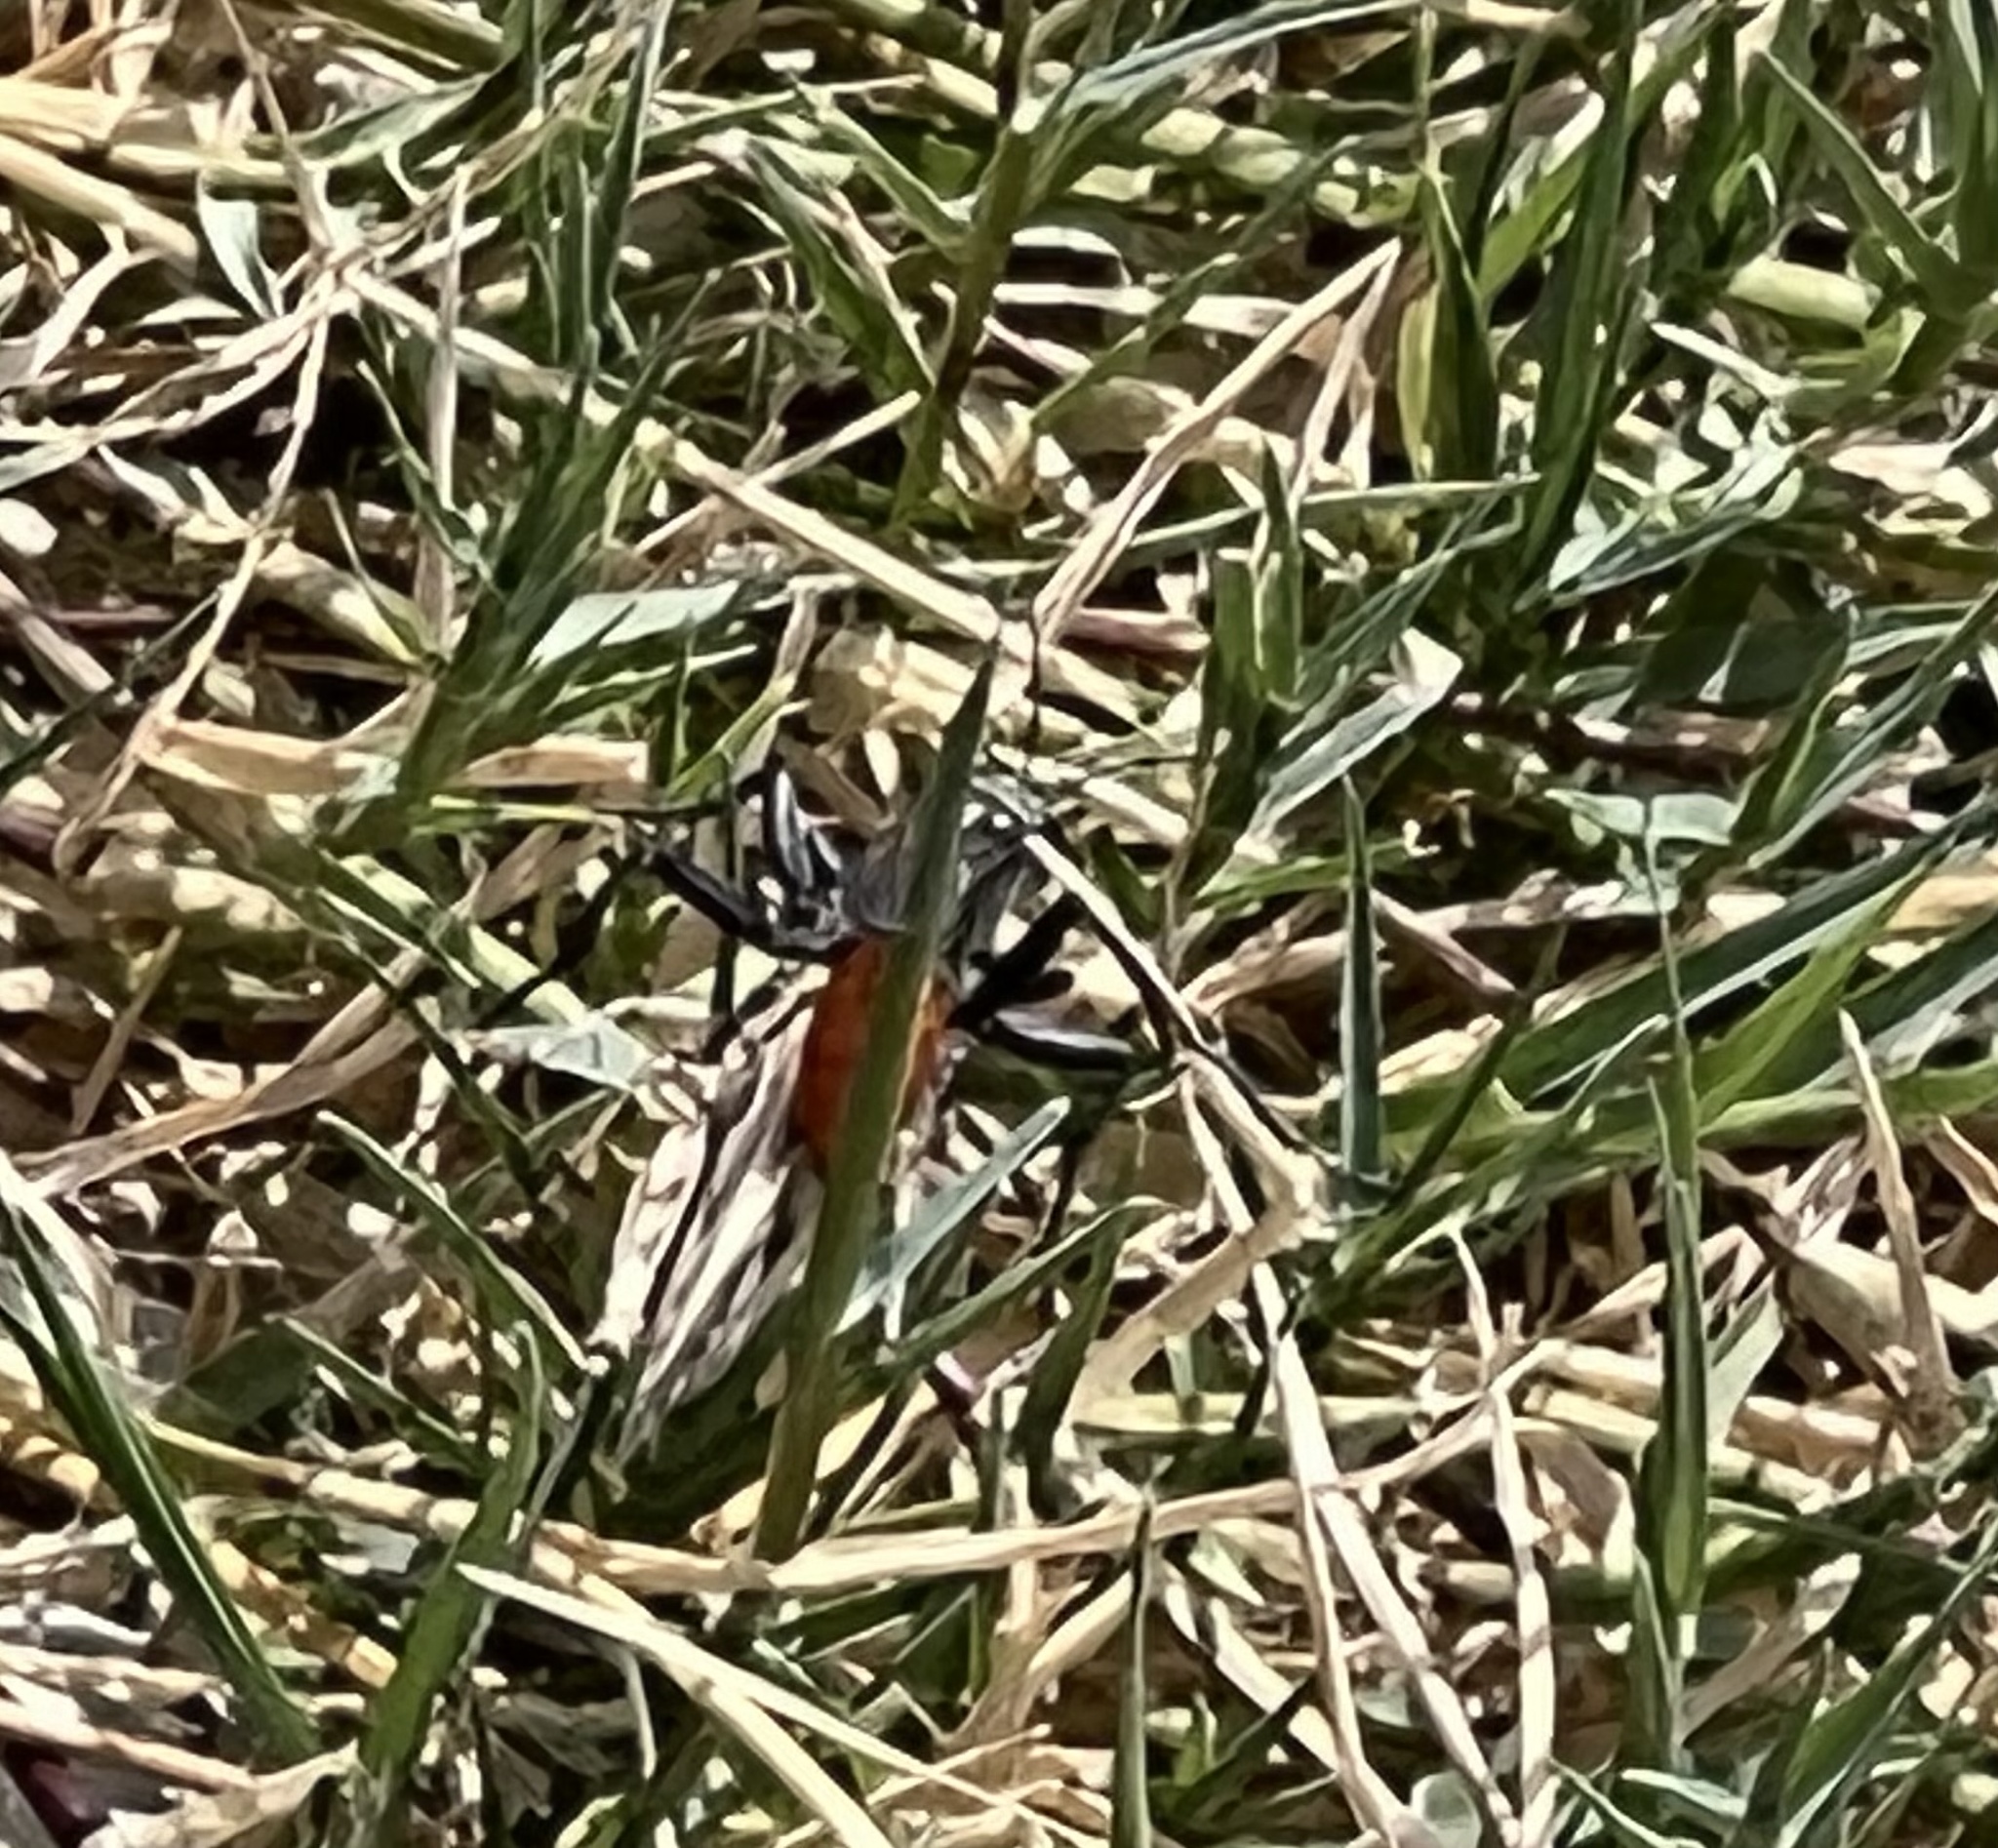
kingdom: Animalia
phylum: Arthropoda
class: Insecta
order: Hymenoptera
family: Sphecidae
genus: Prionyx
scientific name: Prionyx
